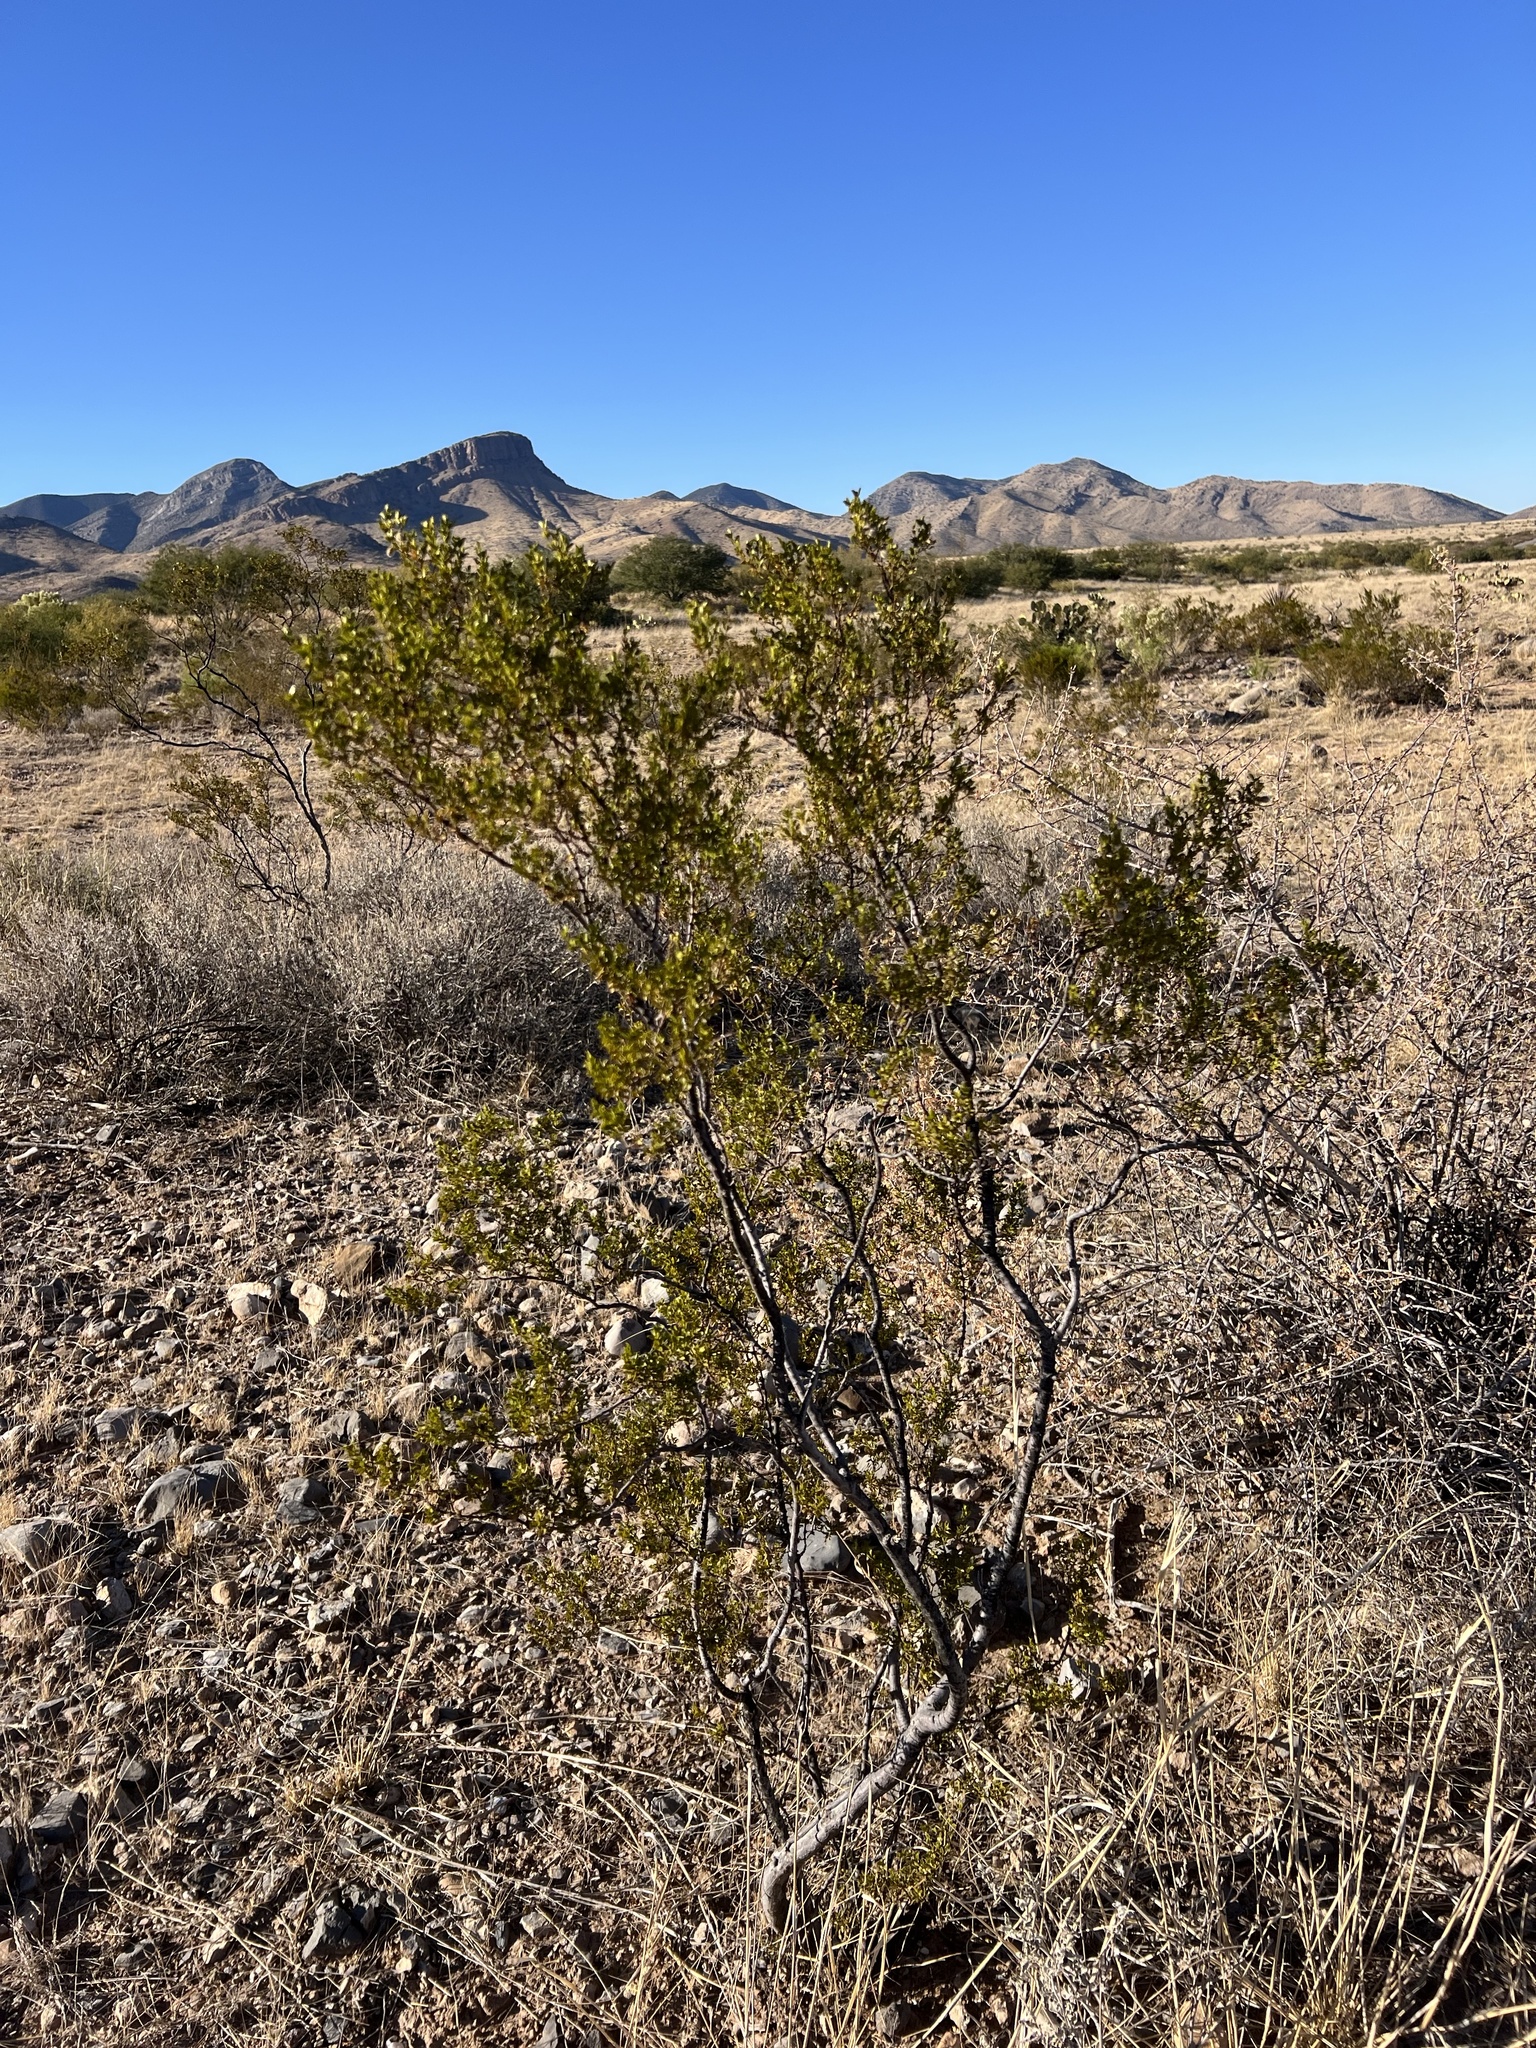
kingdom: Plantae
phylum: Tracheophyta
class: Magnoliopsida
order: Zygophyllales
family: Zygophyllaceae
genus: Larrea
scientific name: Larrea tridentata
